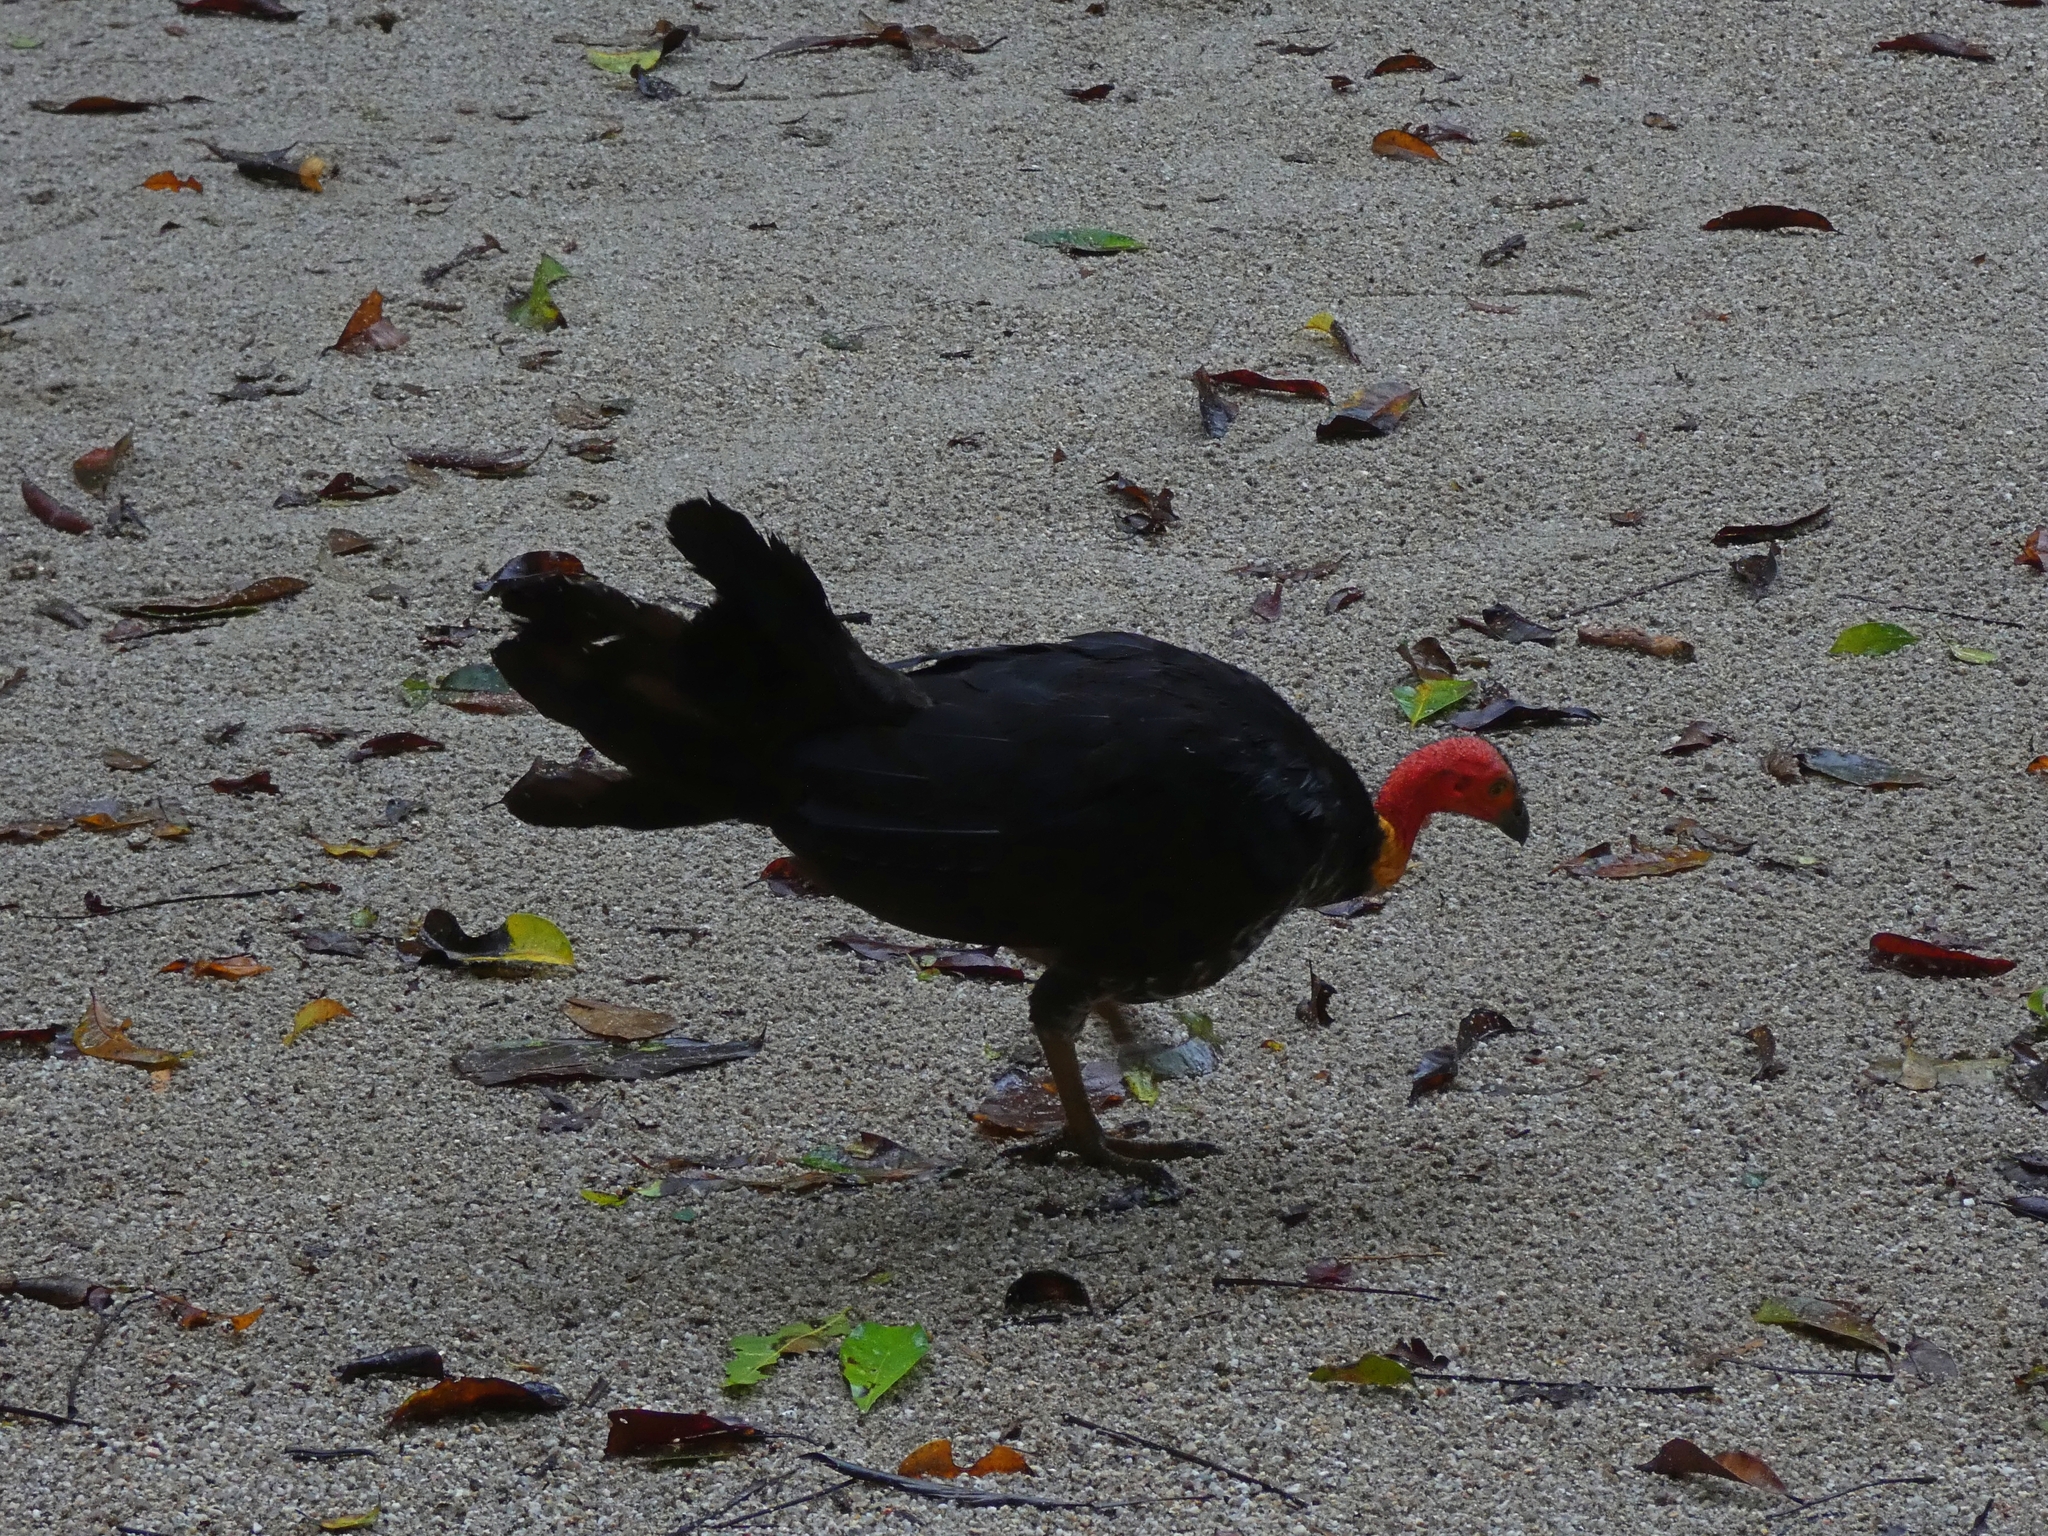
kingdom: Animalia
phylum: Chordata
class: Aves
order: Galliformes
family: Megapodiidae
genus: Alectura
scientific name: Alectura lathami
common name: Australian brushturkey
